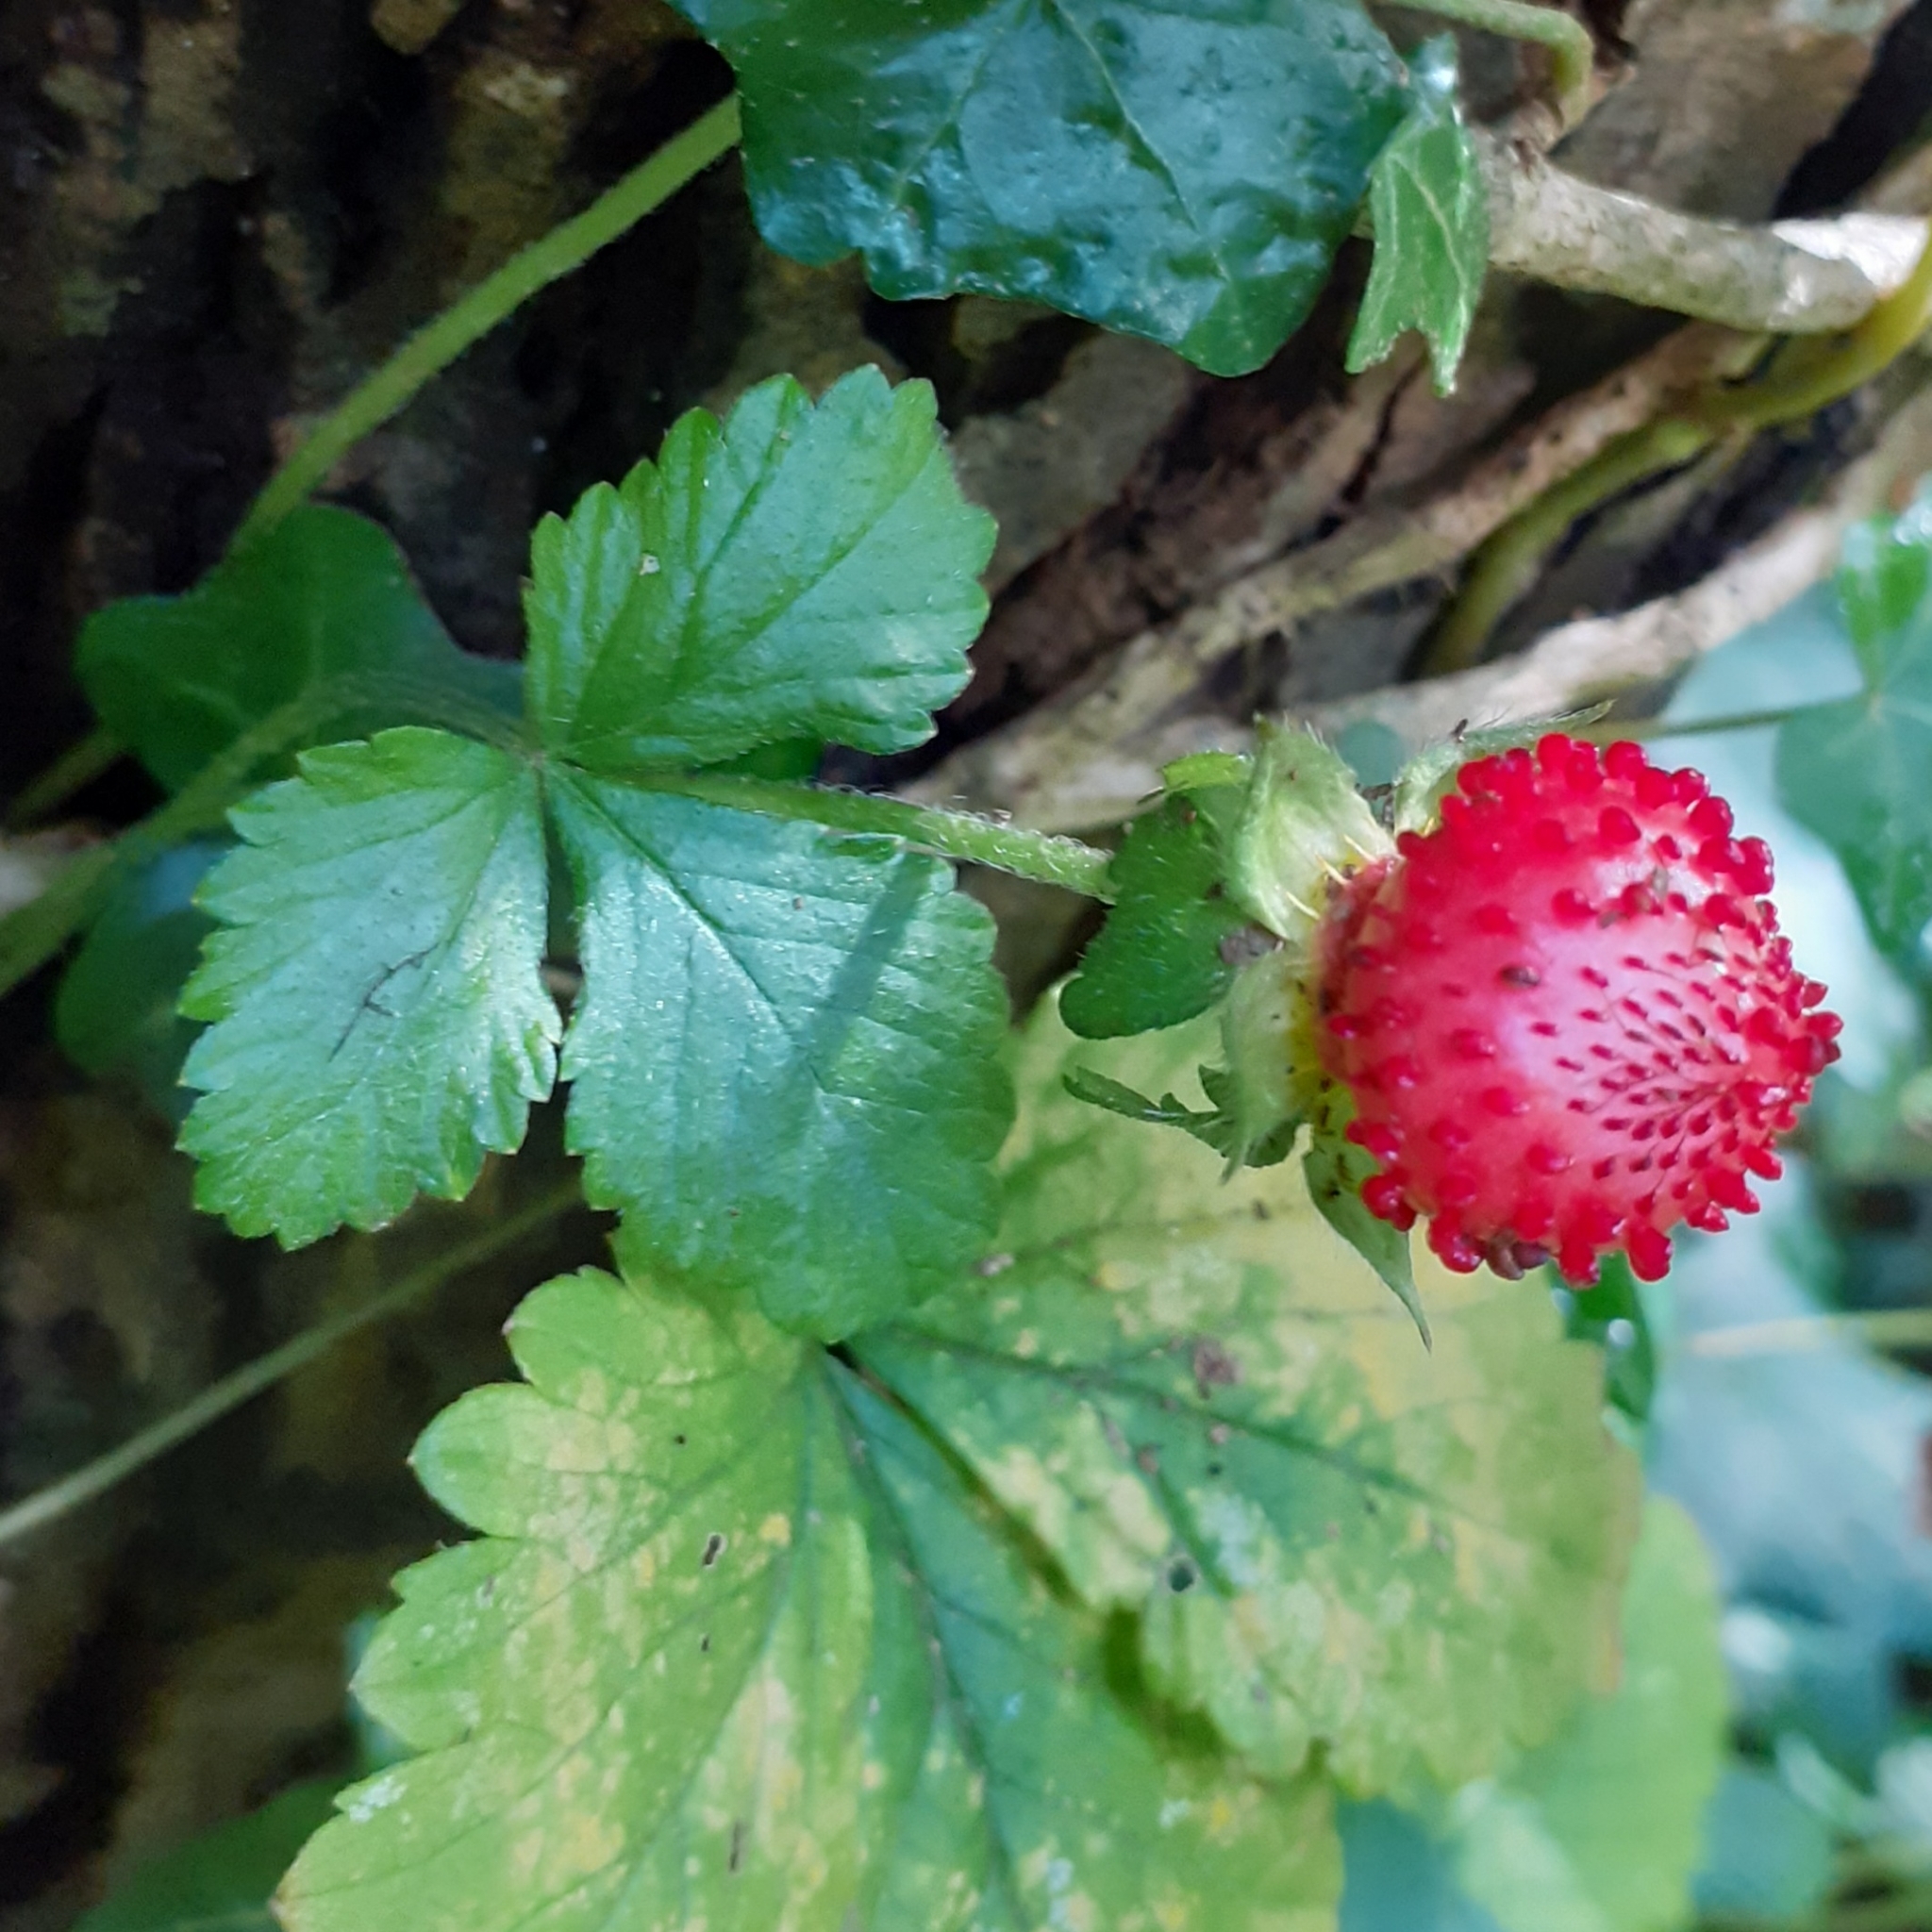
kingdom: Plantae
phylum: Tracheophyta
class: Magnoliopsida
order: Rosales
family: Rosaceae
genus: Potentilla
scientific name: Potentilla indica
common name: Yellow-flowered strawberry
